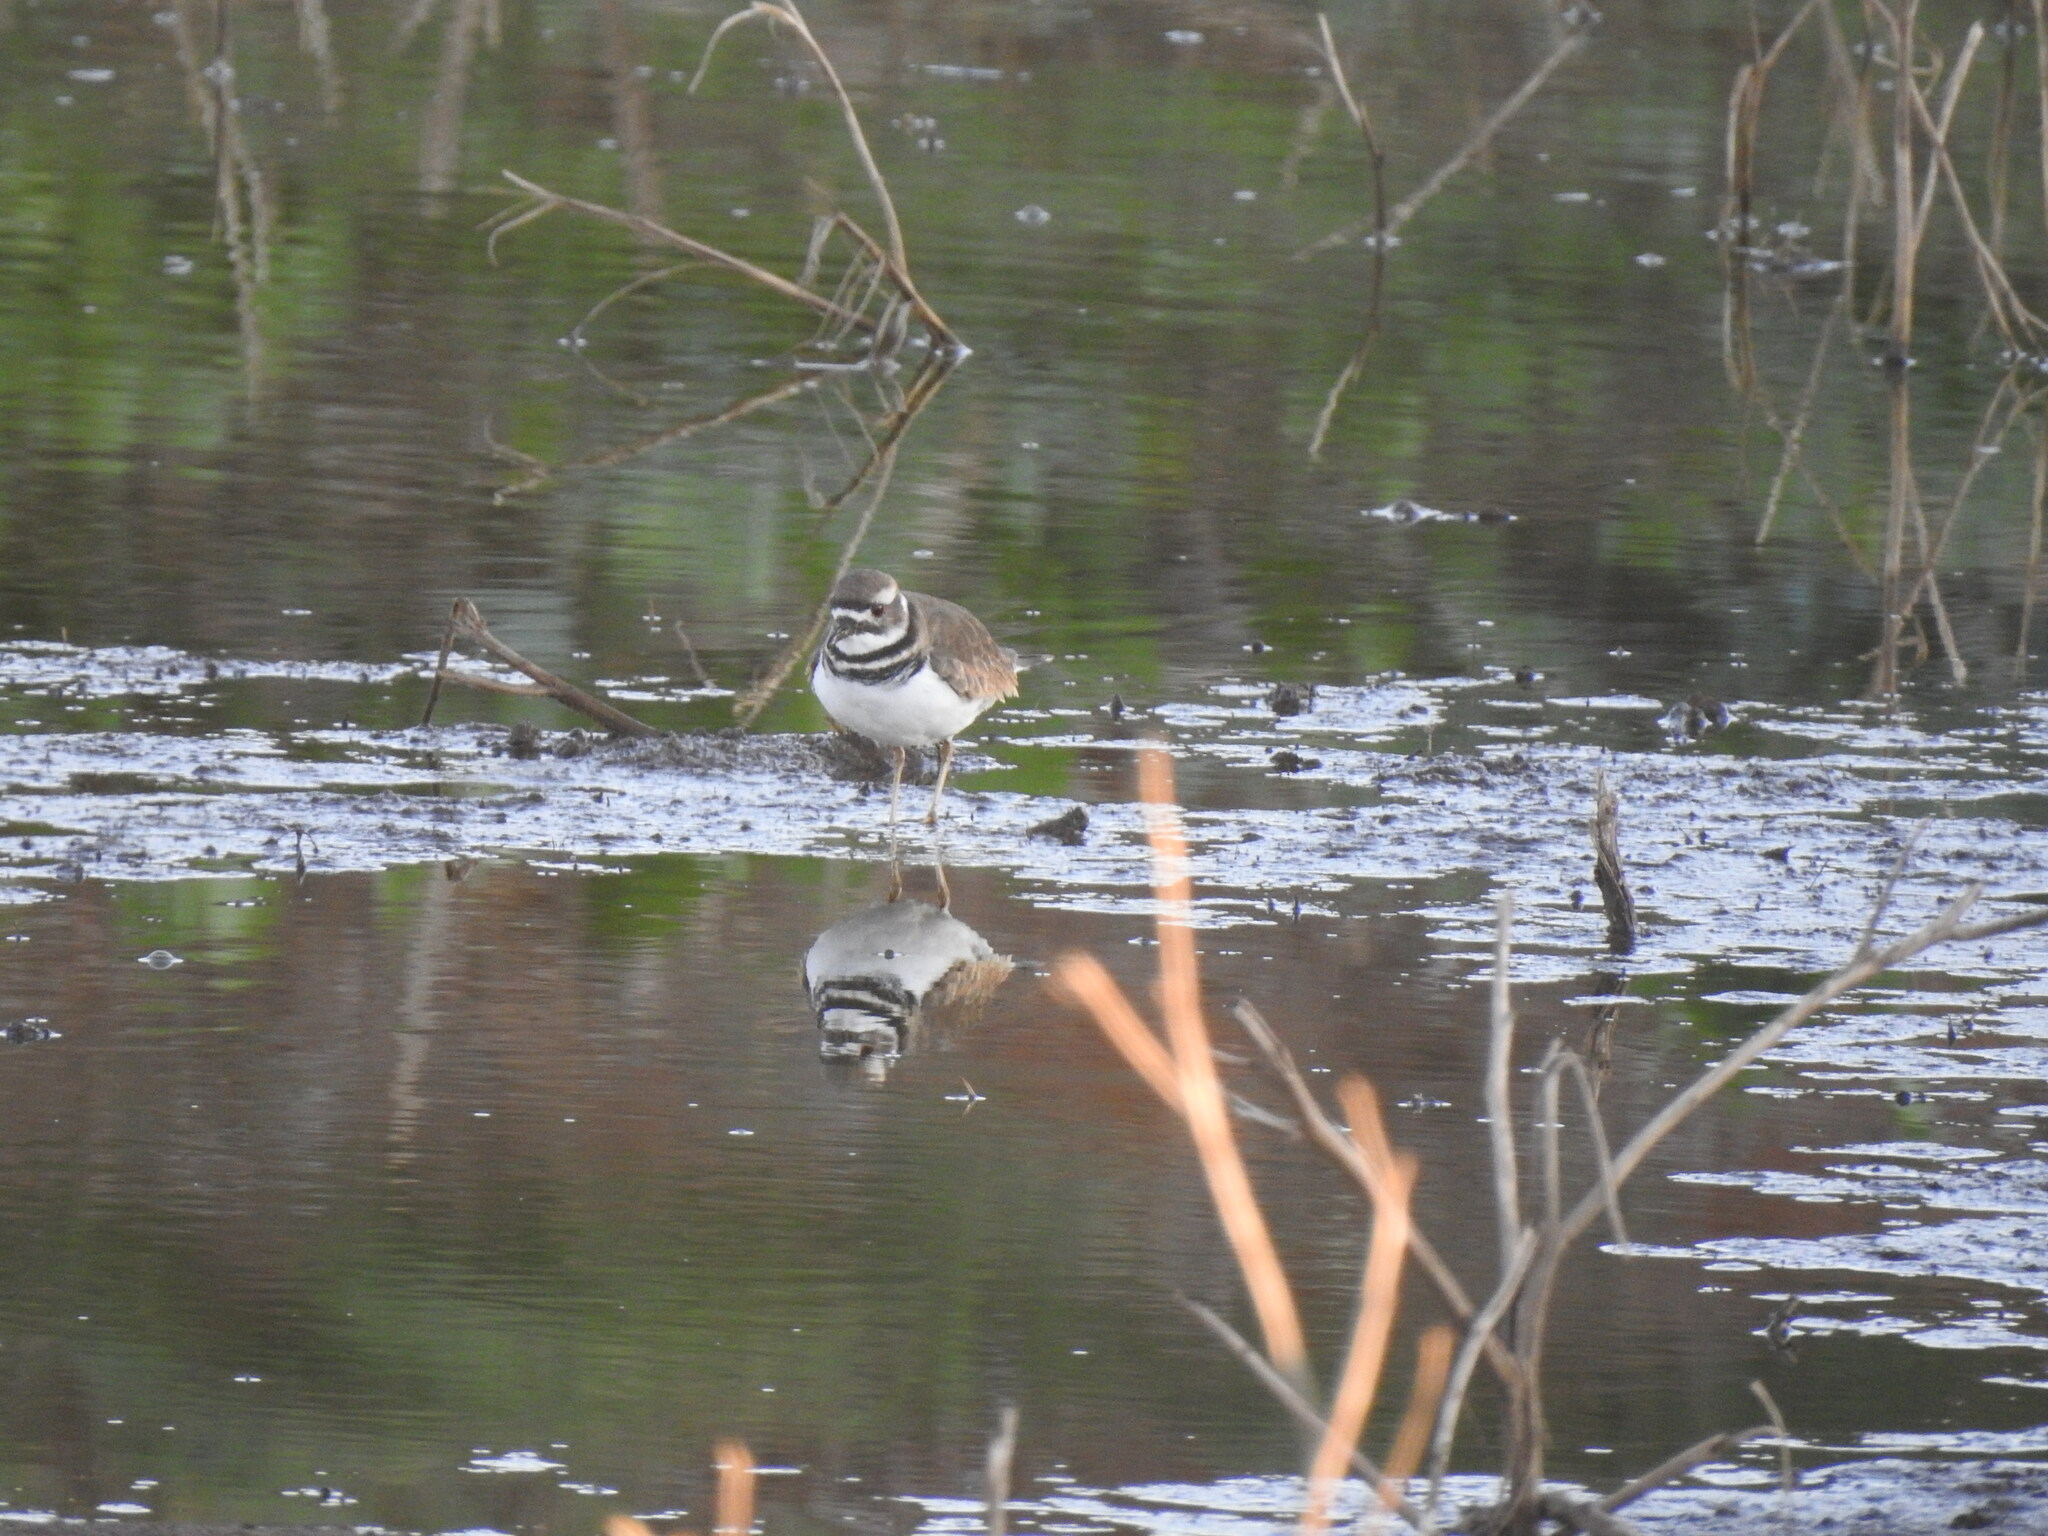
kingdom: Animalia
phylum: Chordata
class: Aves
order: Charadriiformes
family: Charadriidae
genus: Charadrius
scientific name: Charadrius vociferus
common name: Killdeer
